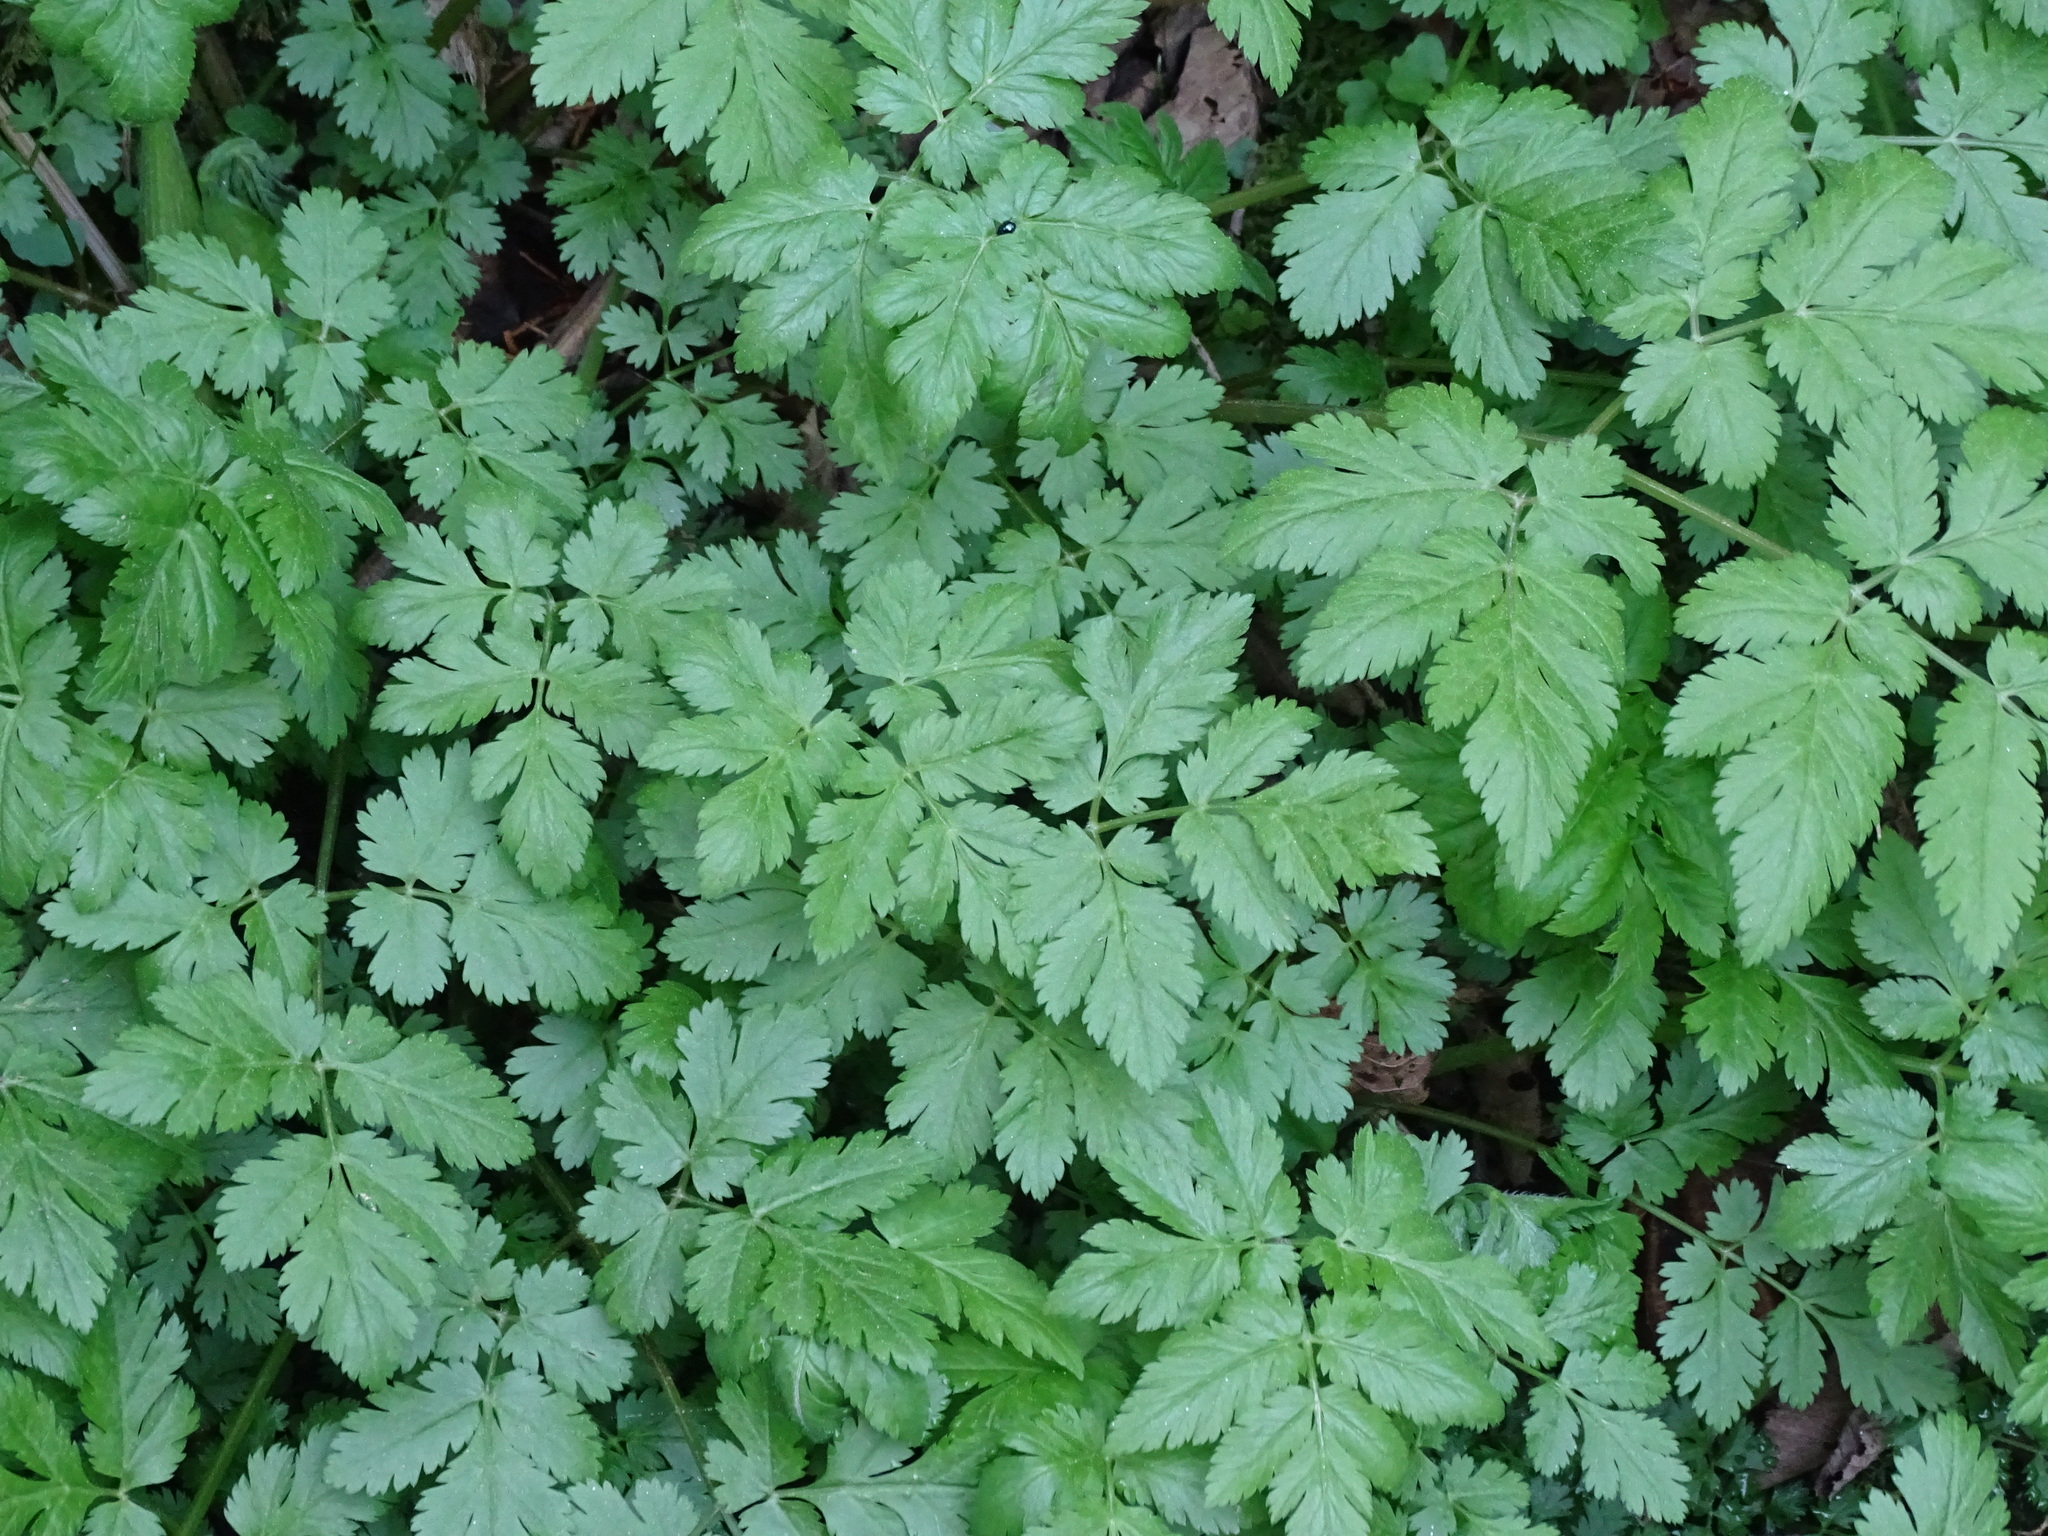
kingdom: Plantae
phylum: Tracheophyta
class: Magnoliopsida
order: Apiales
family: Apiaceae
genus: Chaerophyllum
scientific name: Chaerophyllum hirsutum
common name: Hairy chervil
